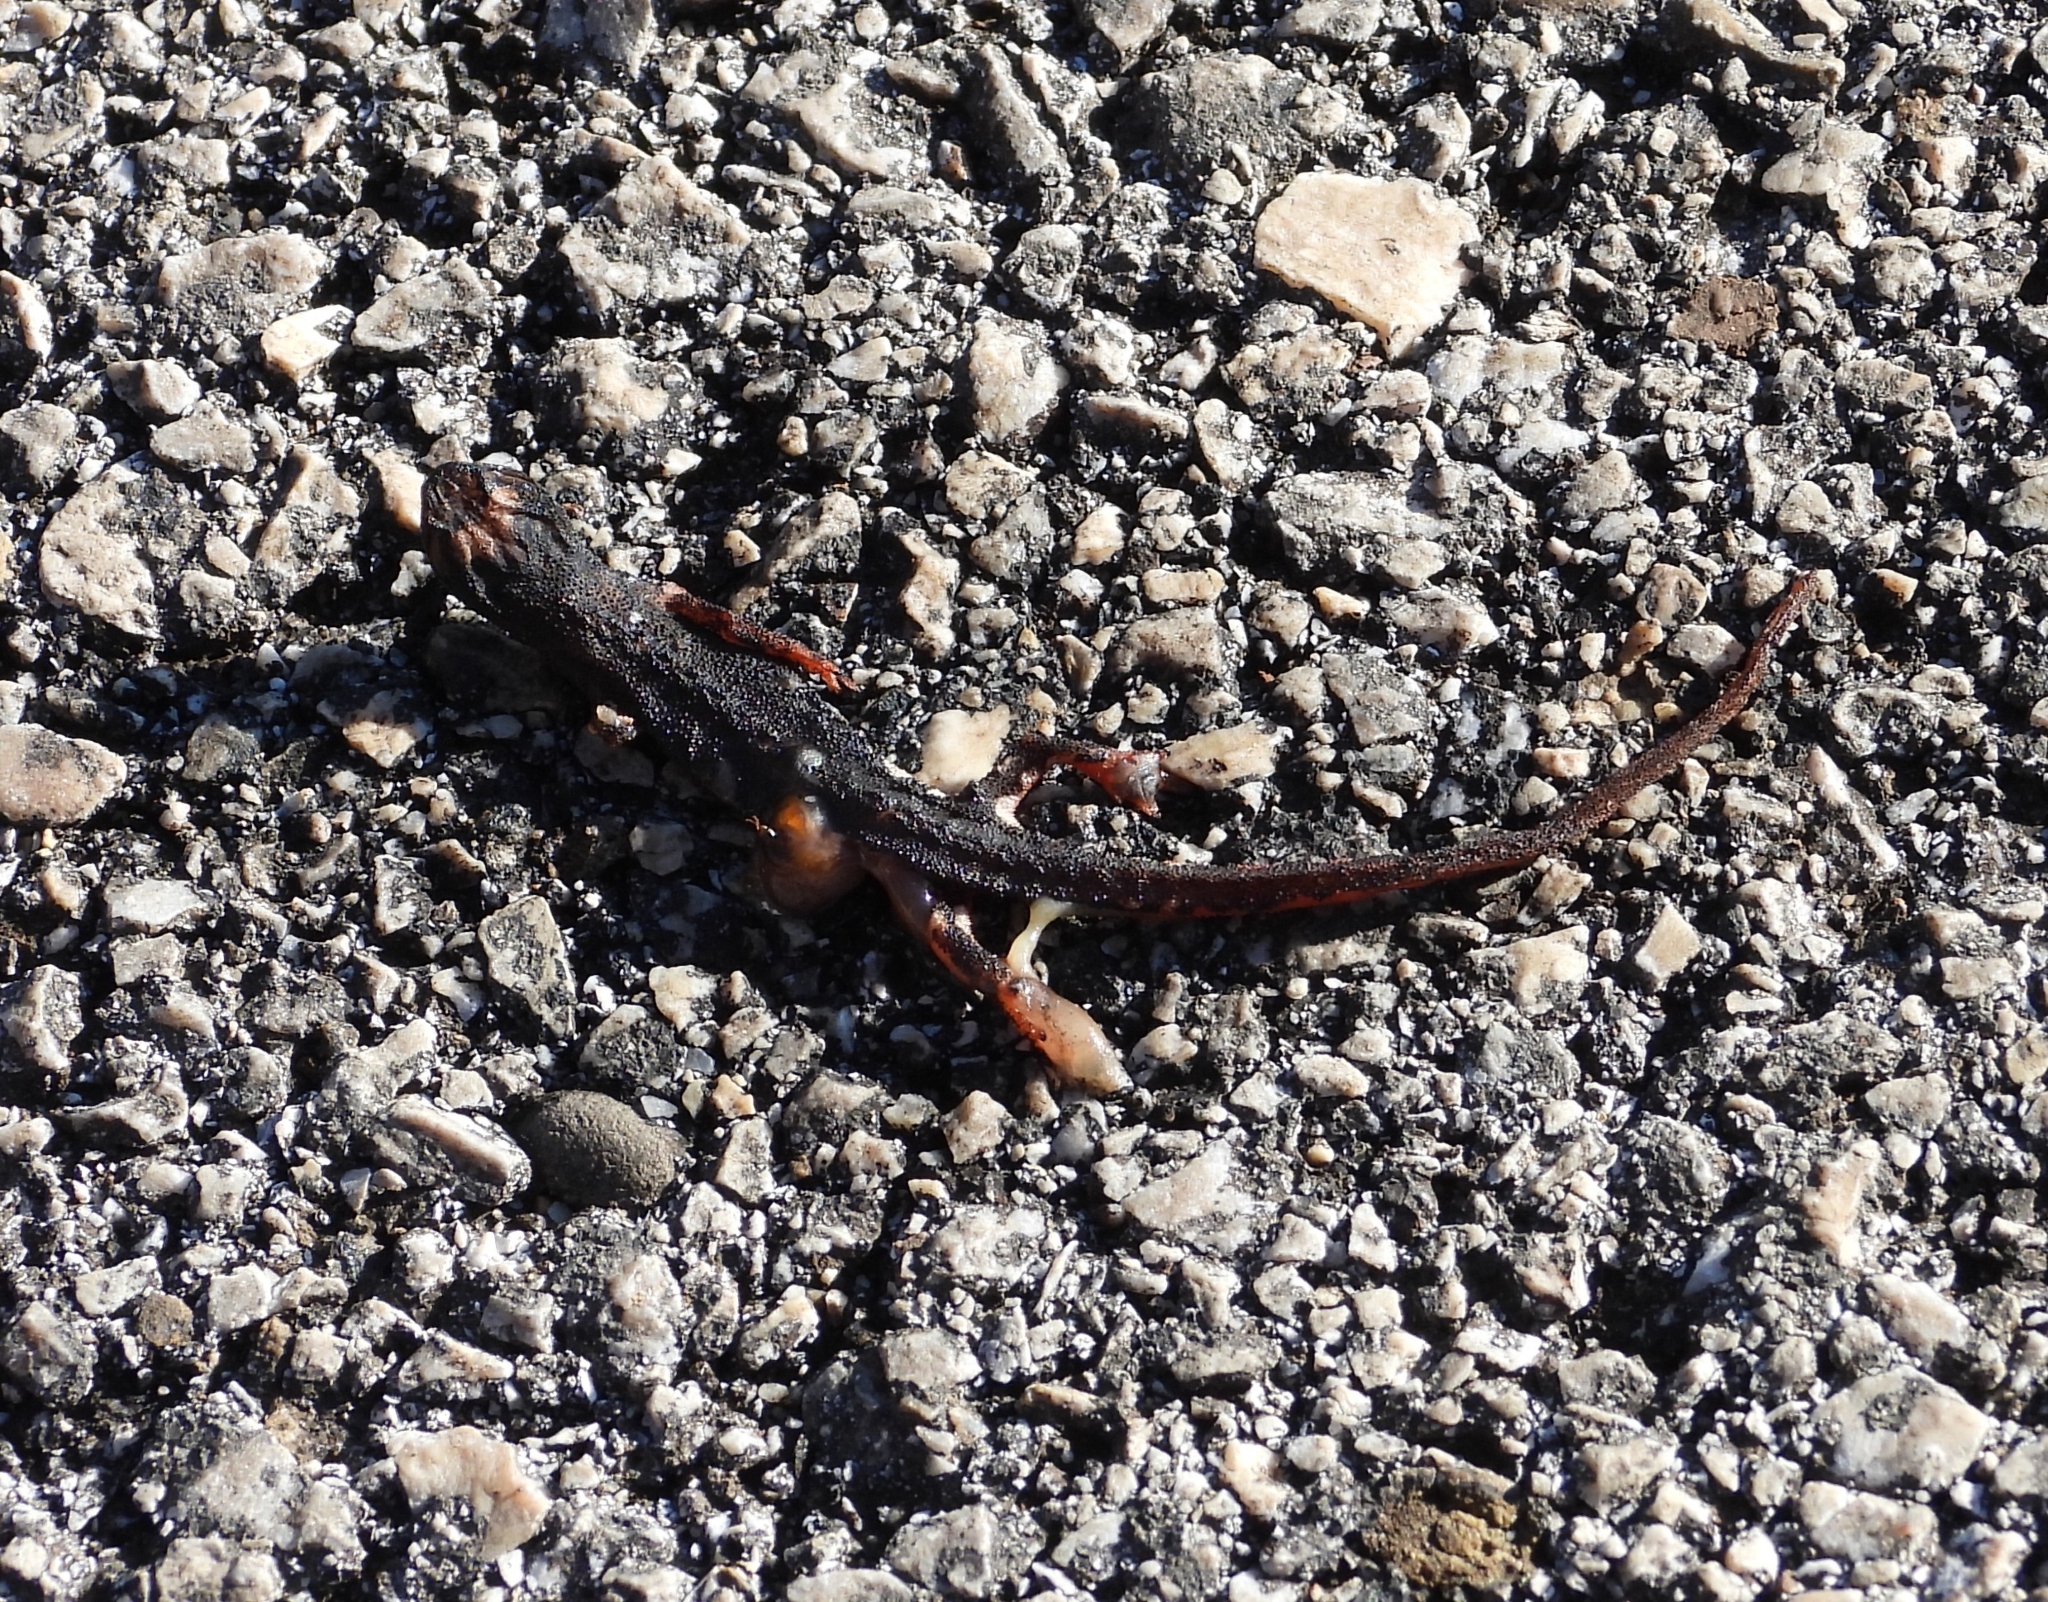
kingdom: Animalia
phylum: Chordata
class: Amphibia
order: Caudata
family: Salamandridae
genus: Salamandrina
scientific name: Salamandrina terdigitata
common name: Southern spectacled salamander
